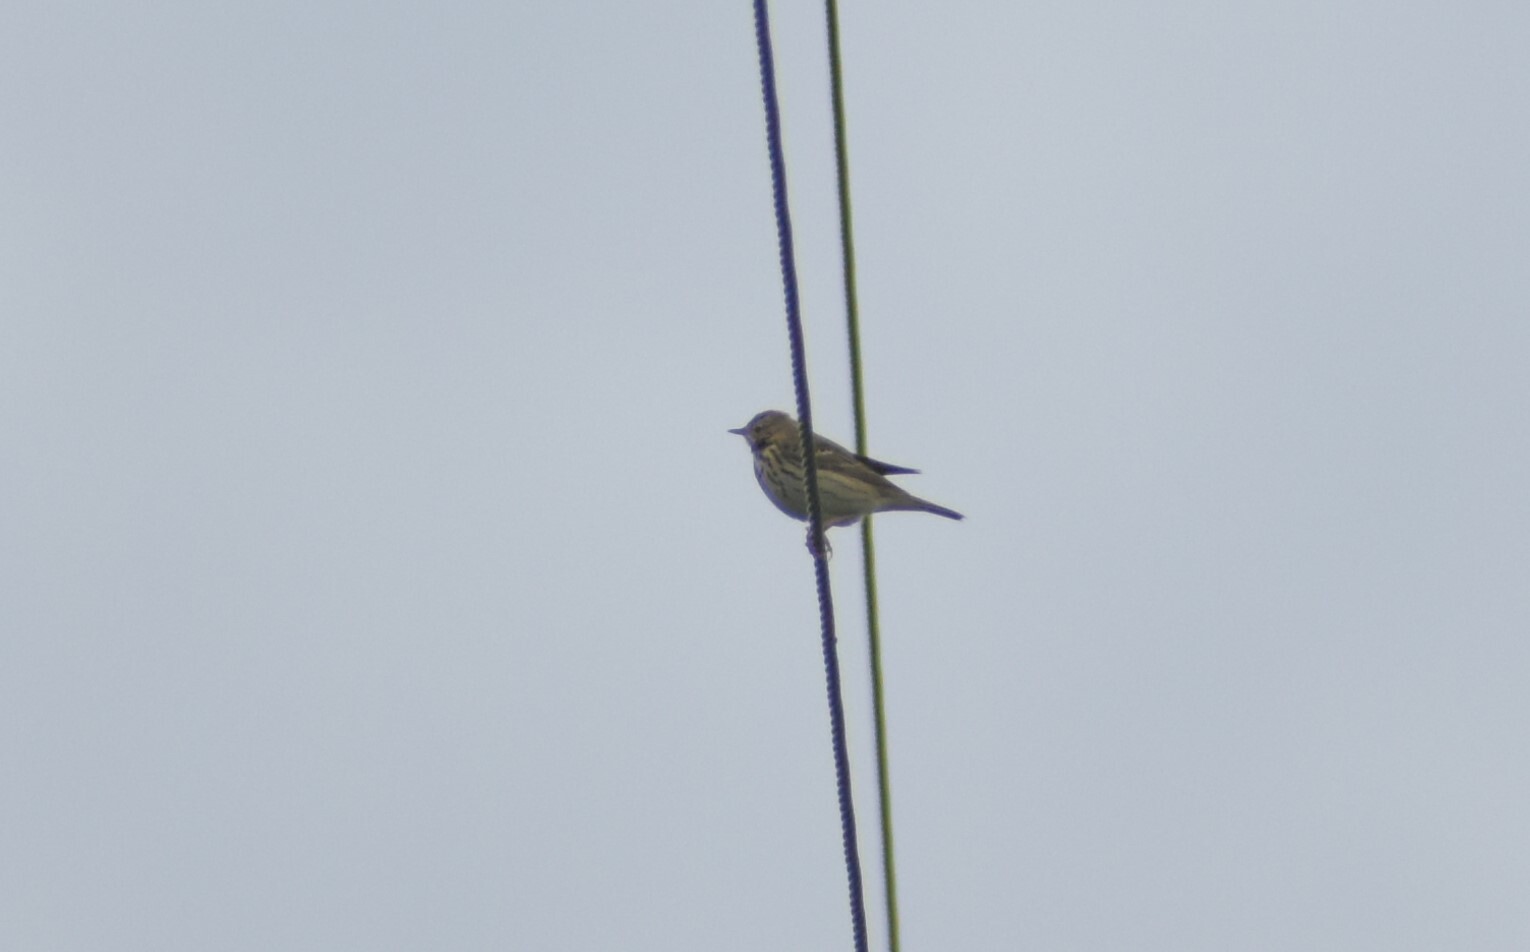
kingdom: Animalia
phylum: Chordata
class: Aves
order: Passeriformes
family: Motacillidae
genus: Anthus
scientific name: Anthus trivialis
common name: Tree pipit
